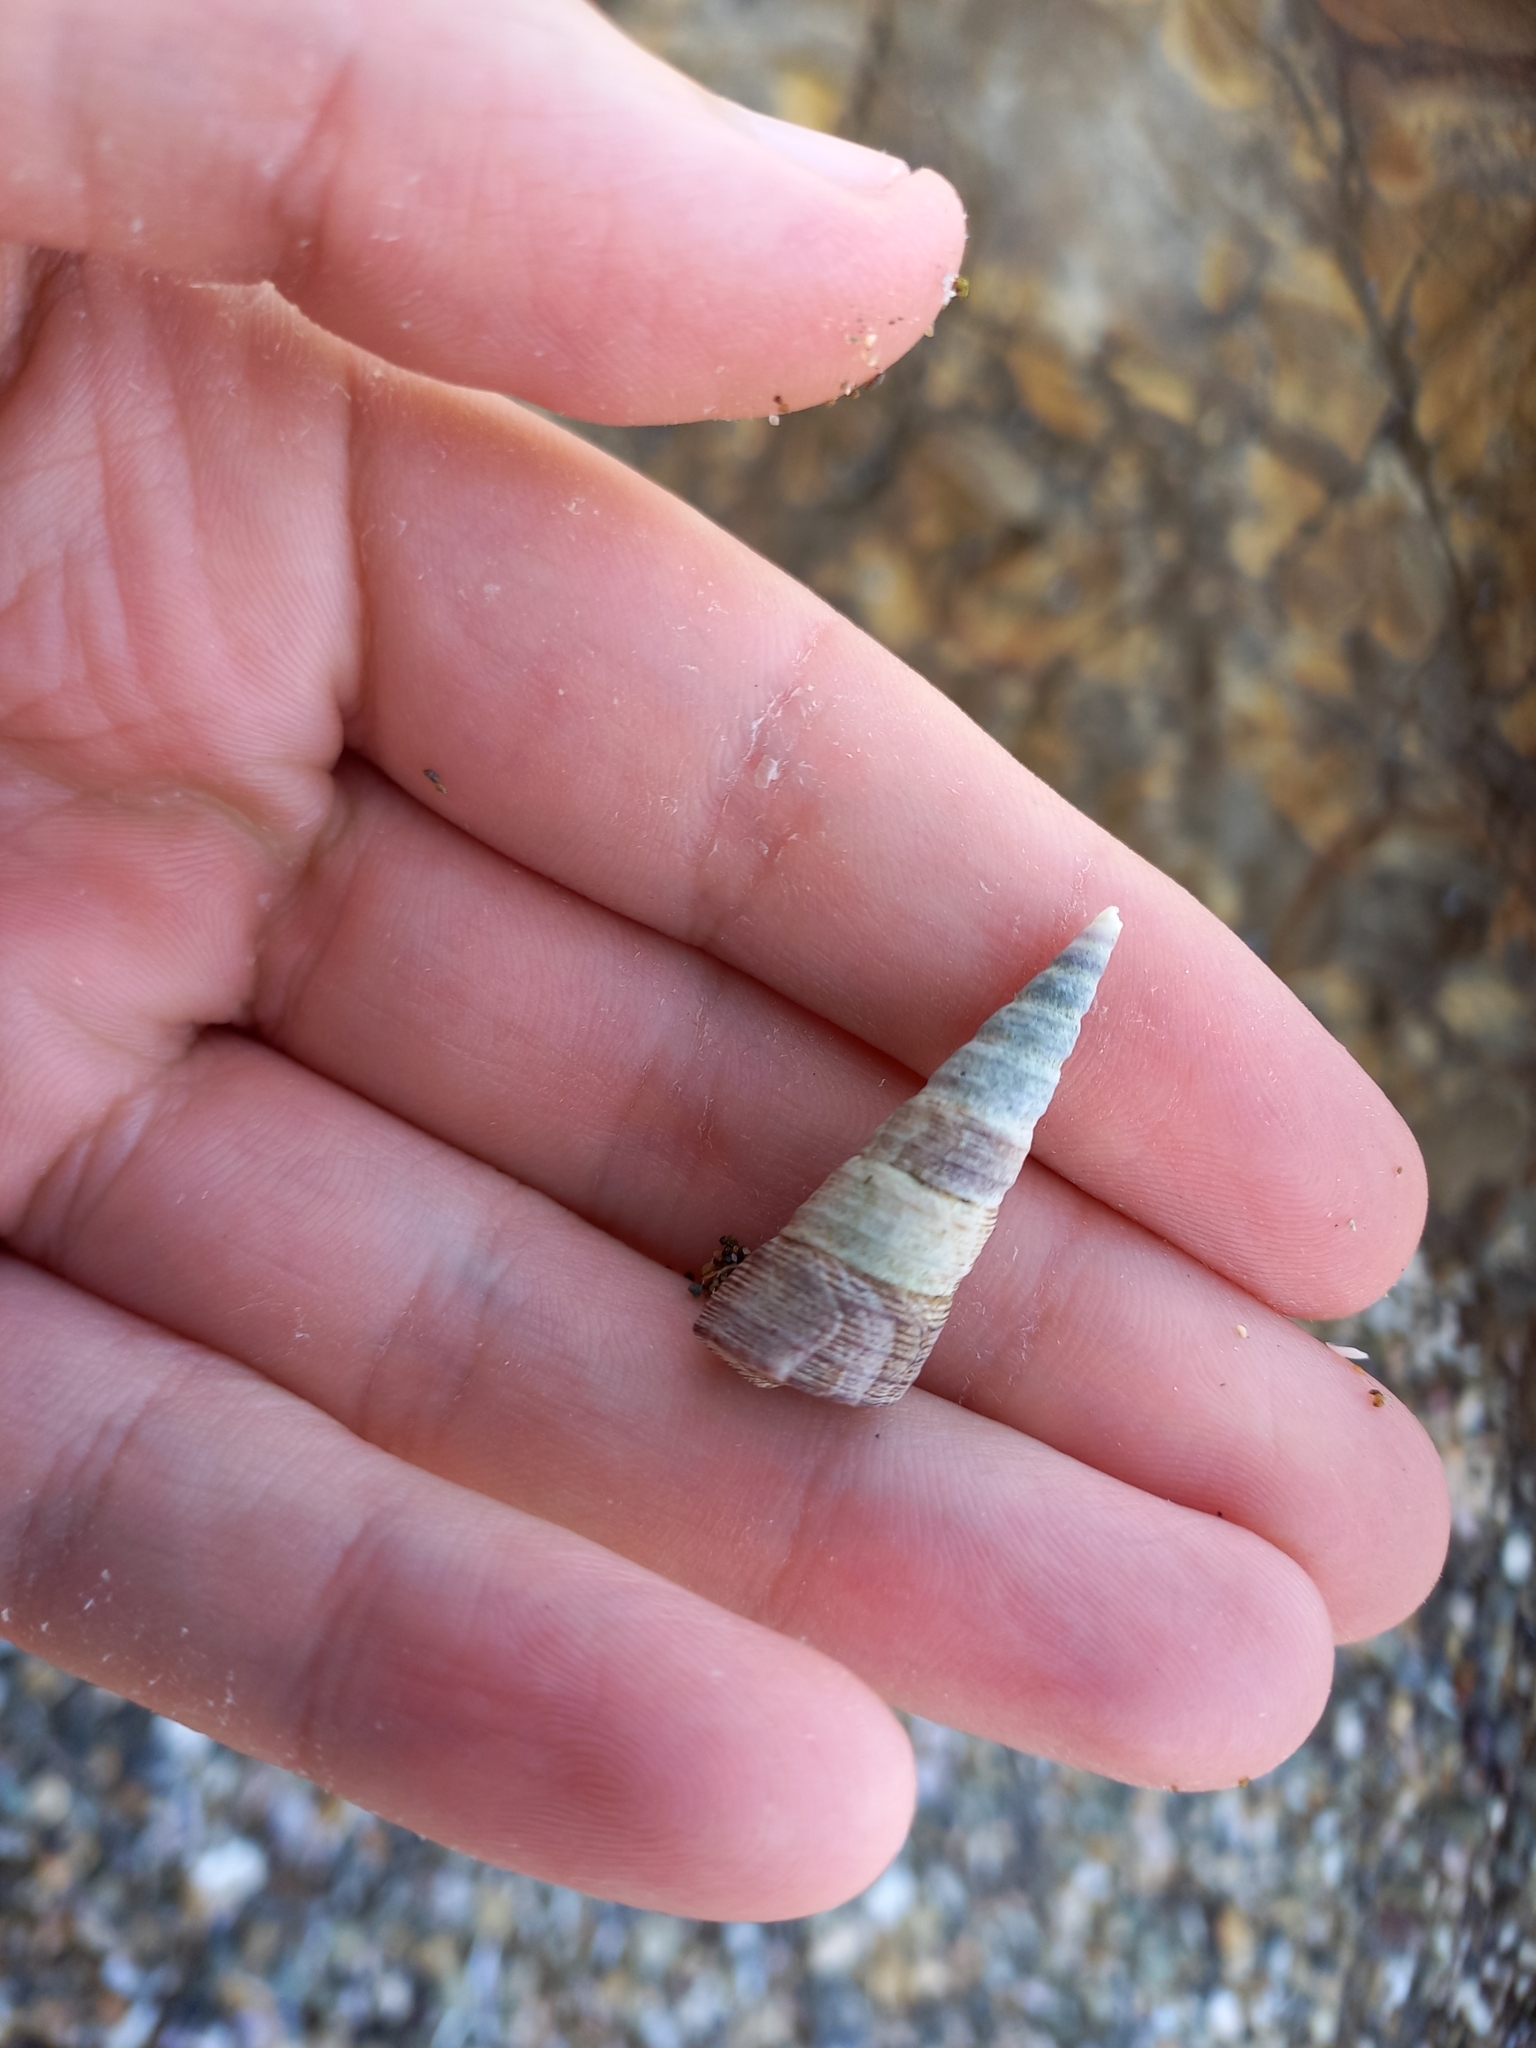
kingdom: Animalia
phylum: Mollusca
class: Gastropoda
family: Turritellidae
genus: Maoricolpus
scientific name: Maoricolpus roseus
